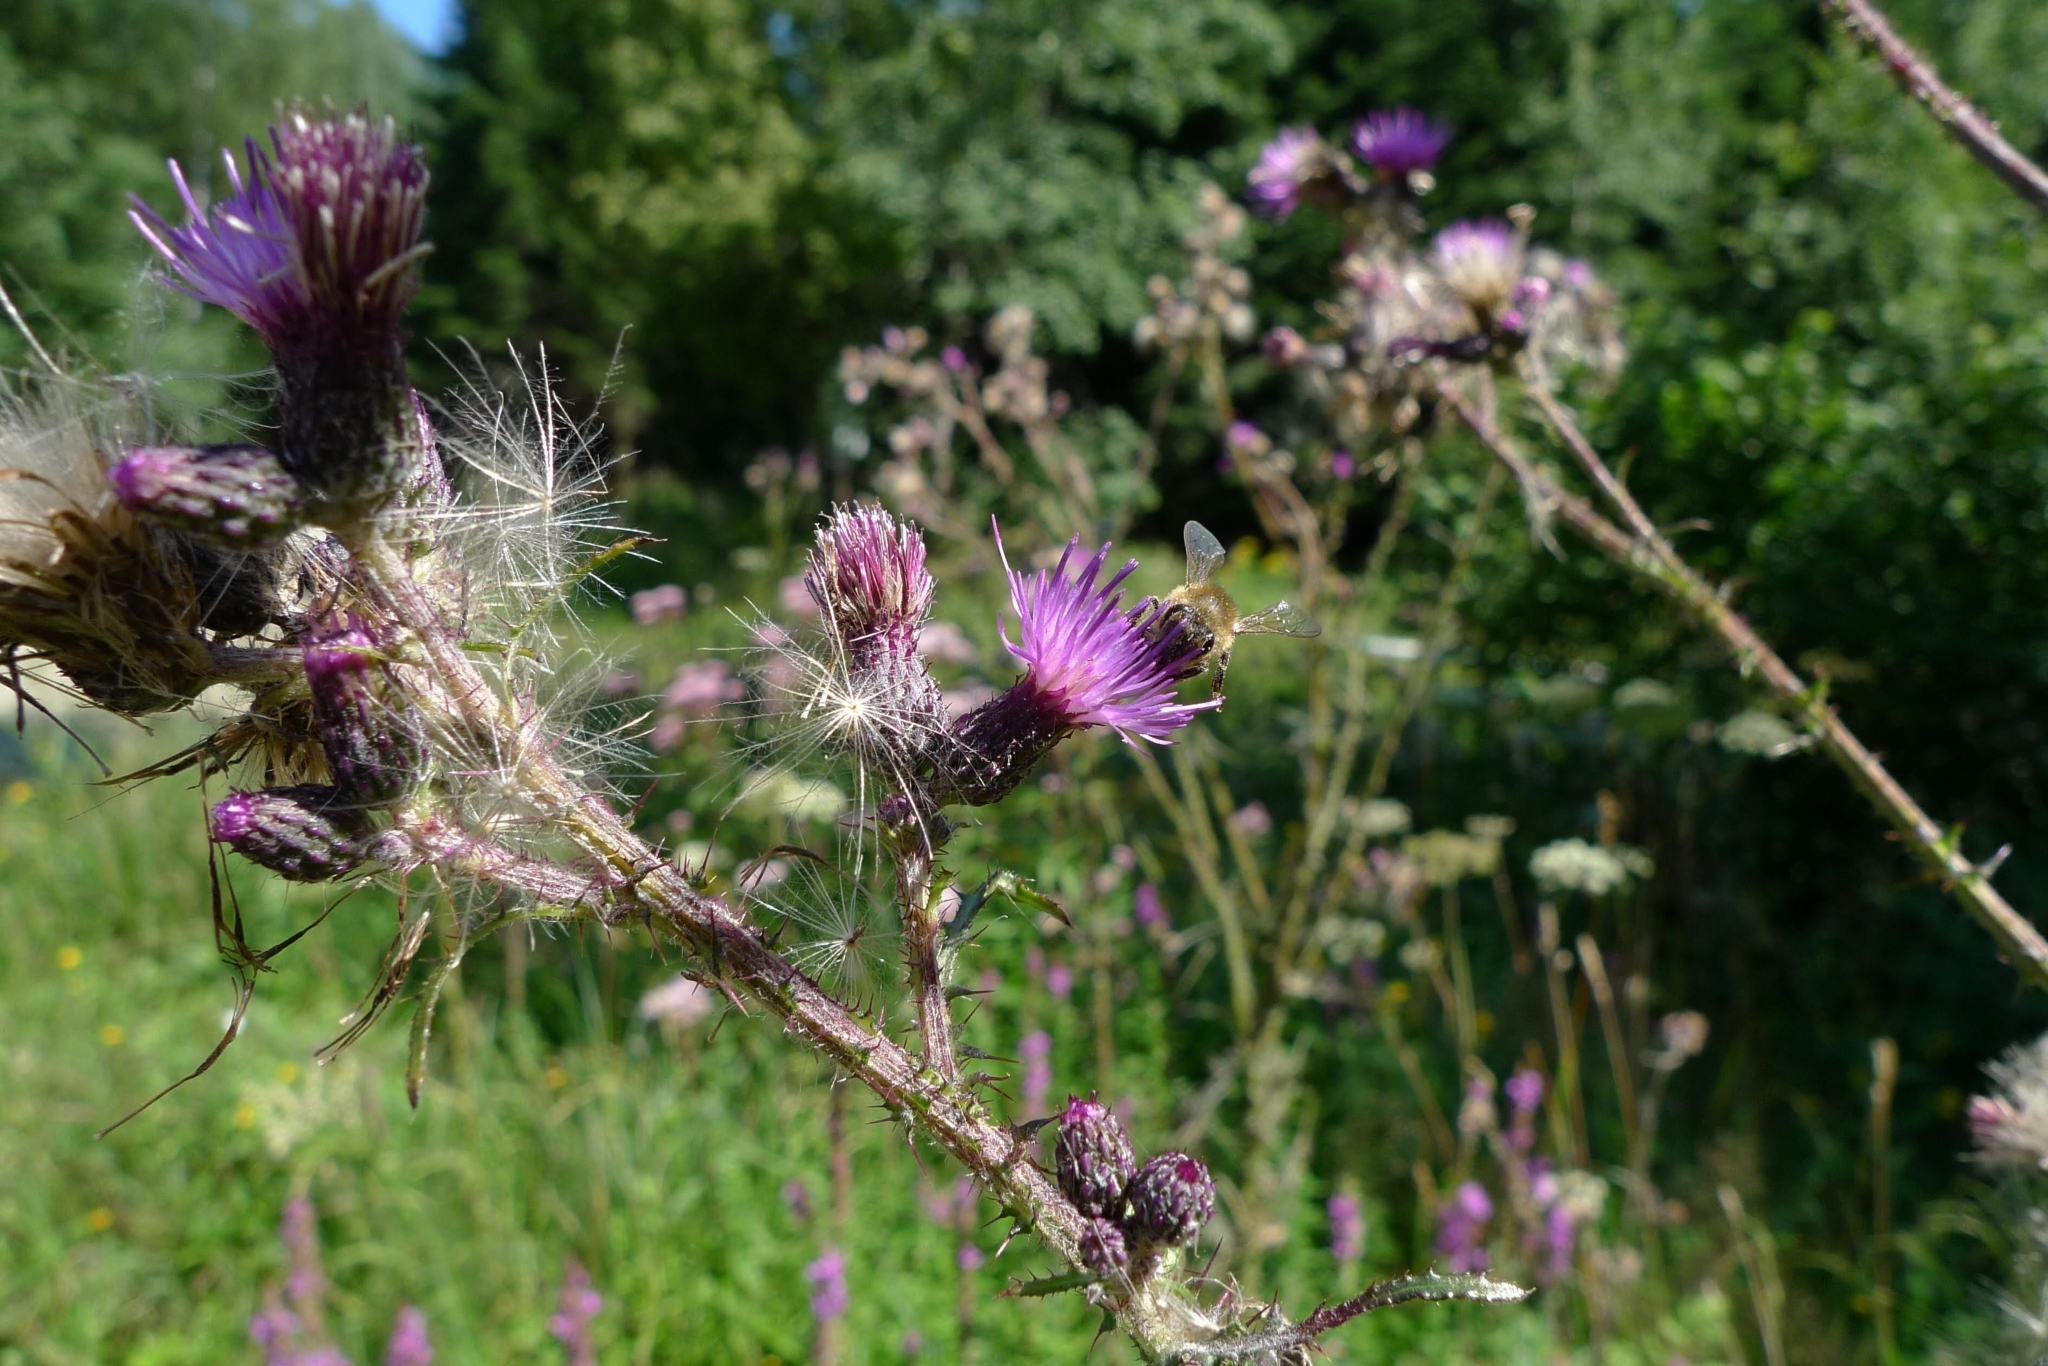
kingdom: Plantae
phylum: Tracheophyta
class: Magnoliopsida
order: Asterales
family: Asteraceae
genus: Cirsium
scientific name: Cirsium palustre
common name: Marsh thistle
